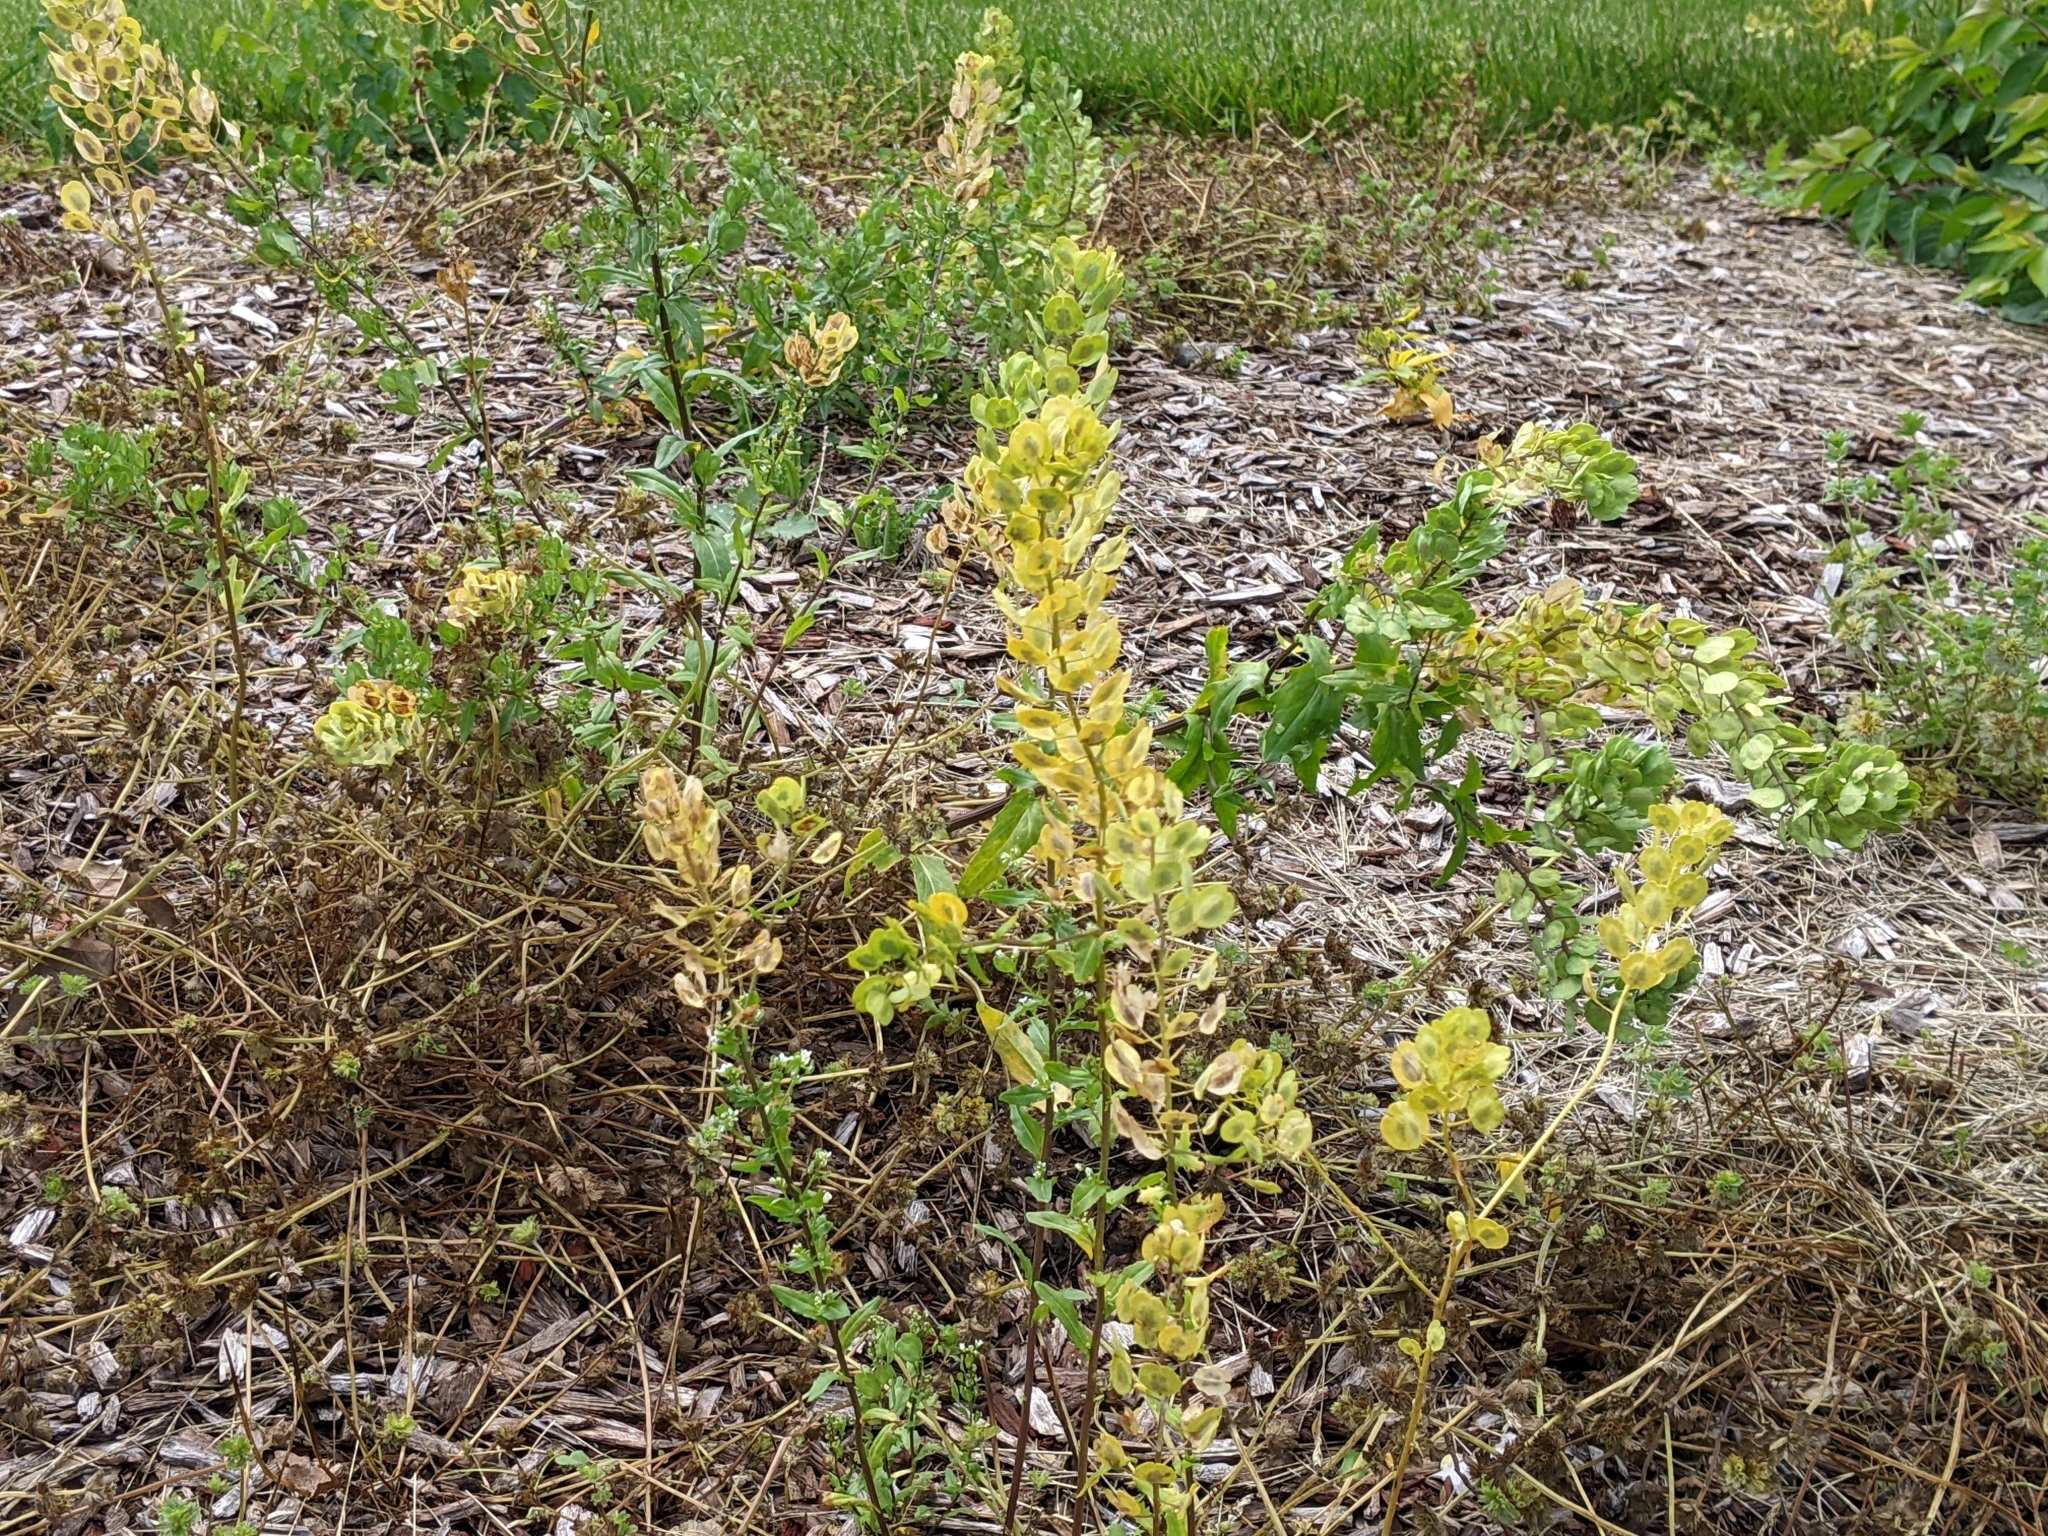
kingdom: Plantae
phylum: Tracheophyta
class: Magnoliopsida
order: Brassicales
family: Brassicaceae
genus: Thlaspi
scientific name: Thlaspi arvense
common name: Field pennycress
